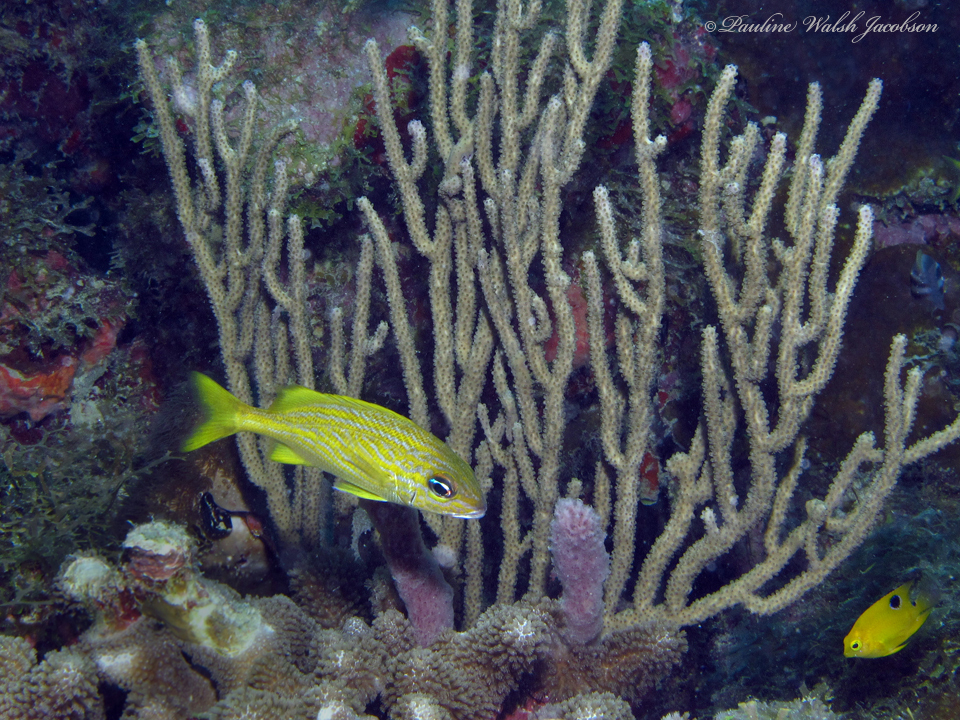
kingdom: Animalia
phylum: Chordata
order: Perciformes
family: Haemulidae
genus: Haemulon
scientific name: Haemulon flavolineatum
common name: French grunt
